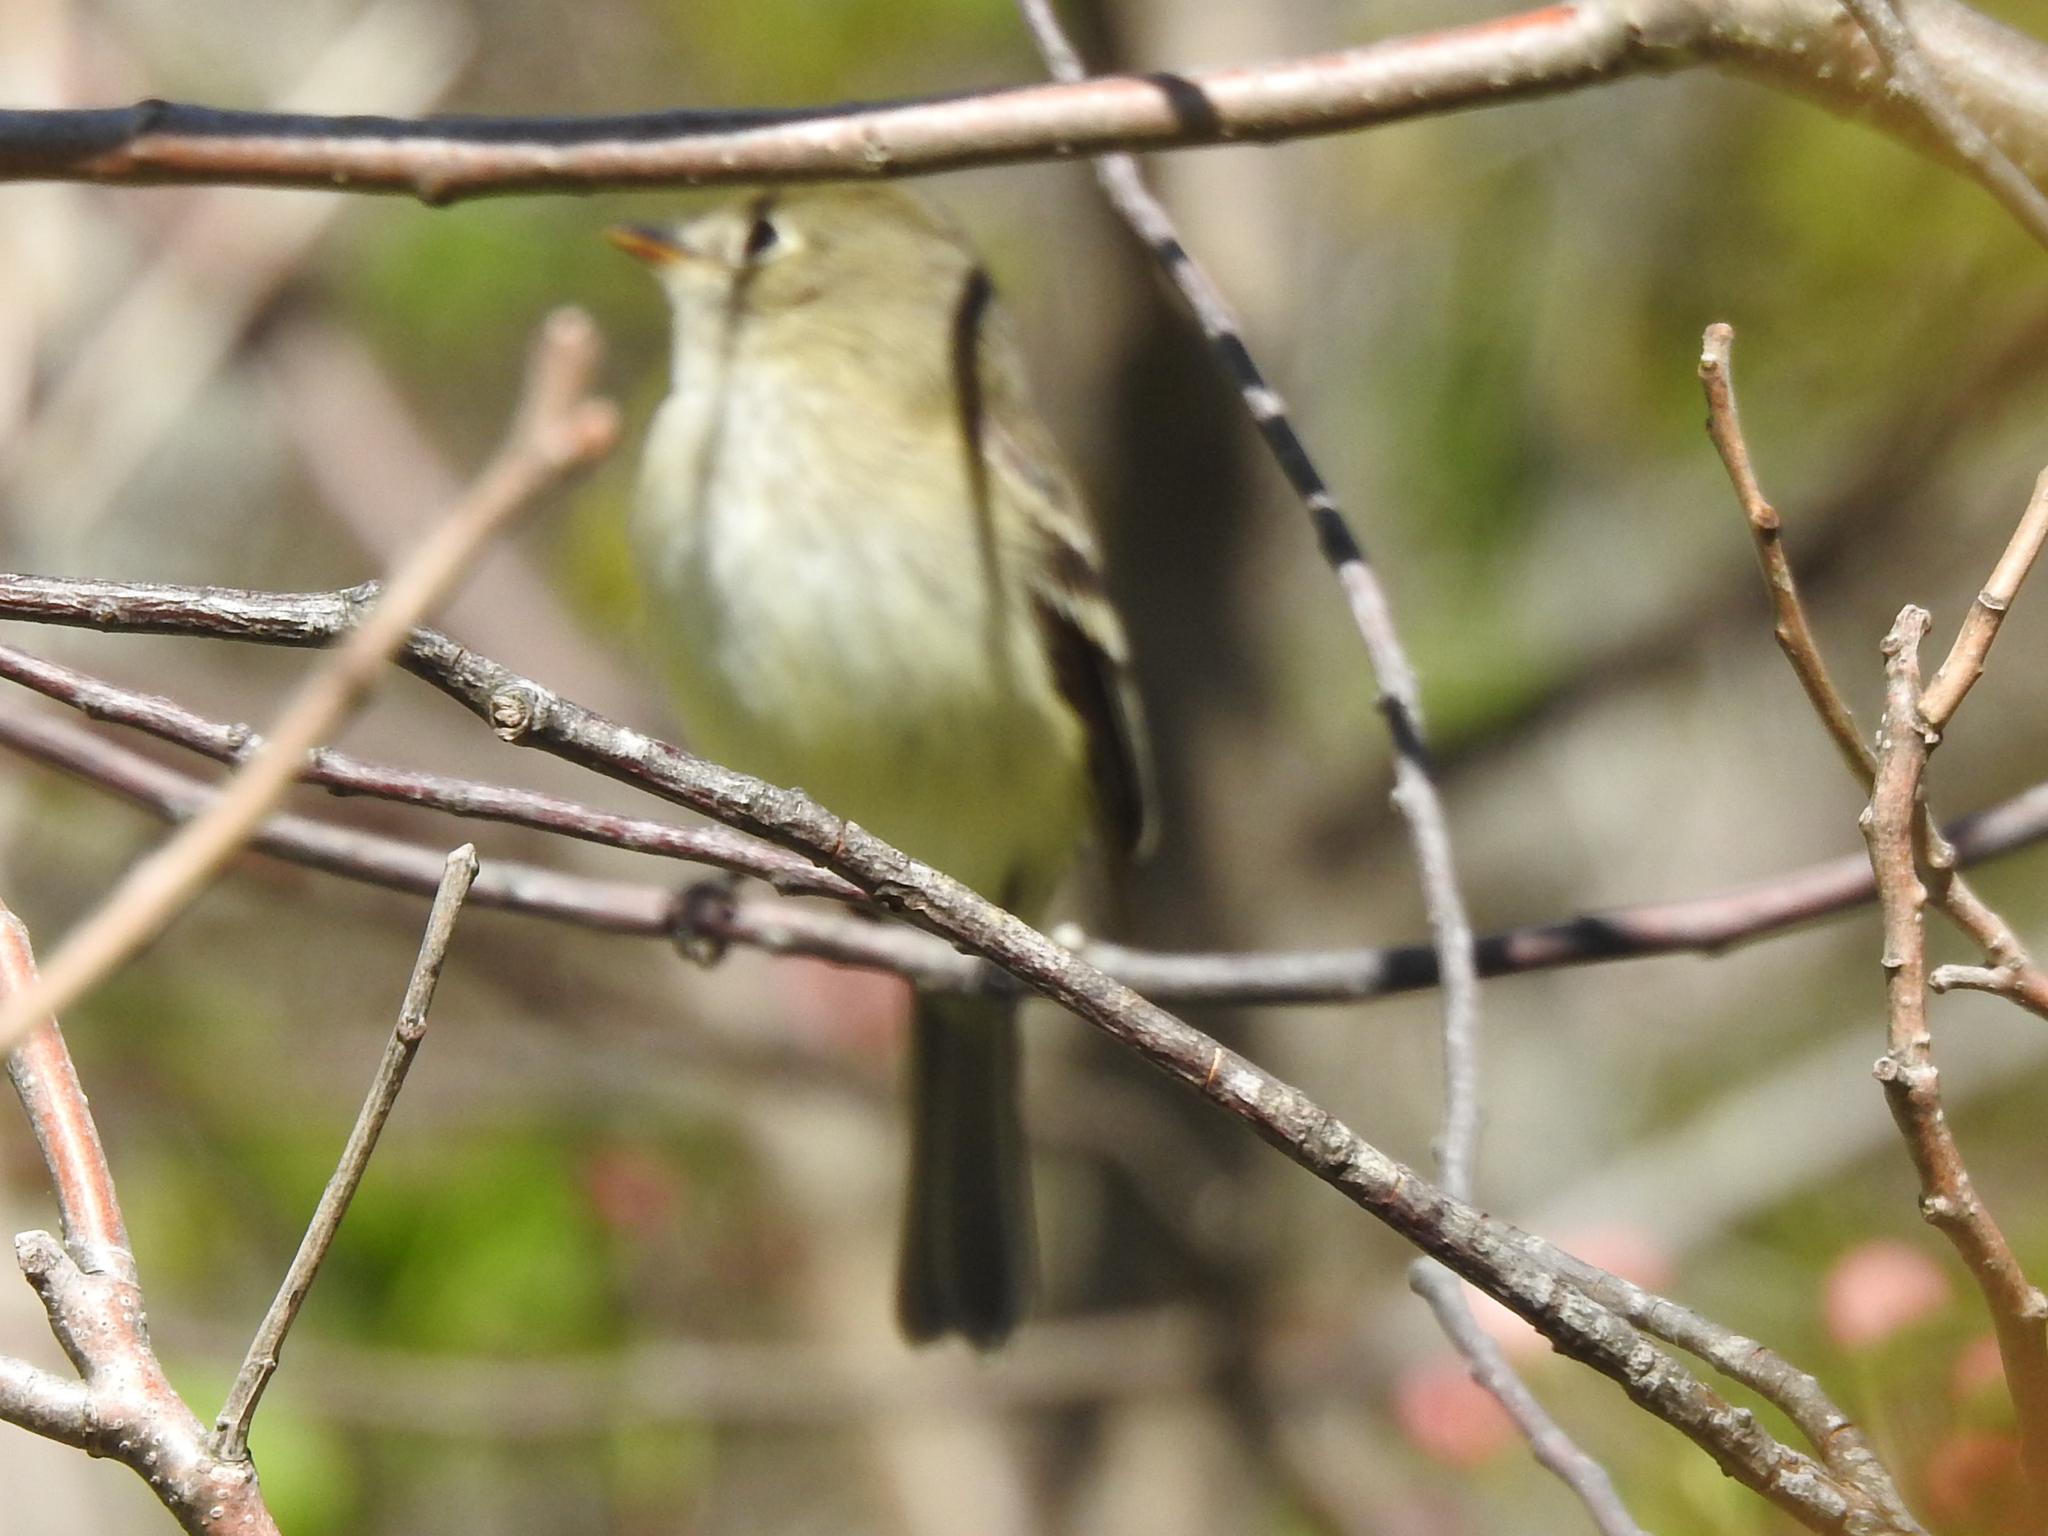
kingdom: Animalia
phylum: Chordata
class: Aves
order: Passeriformes
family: Tyrannidae
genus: Empidonax
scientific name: Empidonax minimus
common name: Least flycatcher
